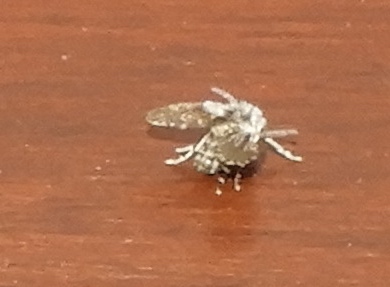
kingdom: Animalia
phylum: Arthropoda
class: Insecta
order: Diptera
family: Psychodidae
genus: Clogmia
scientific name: Clogmia albipunctatus
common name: White-spotted moth fly
